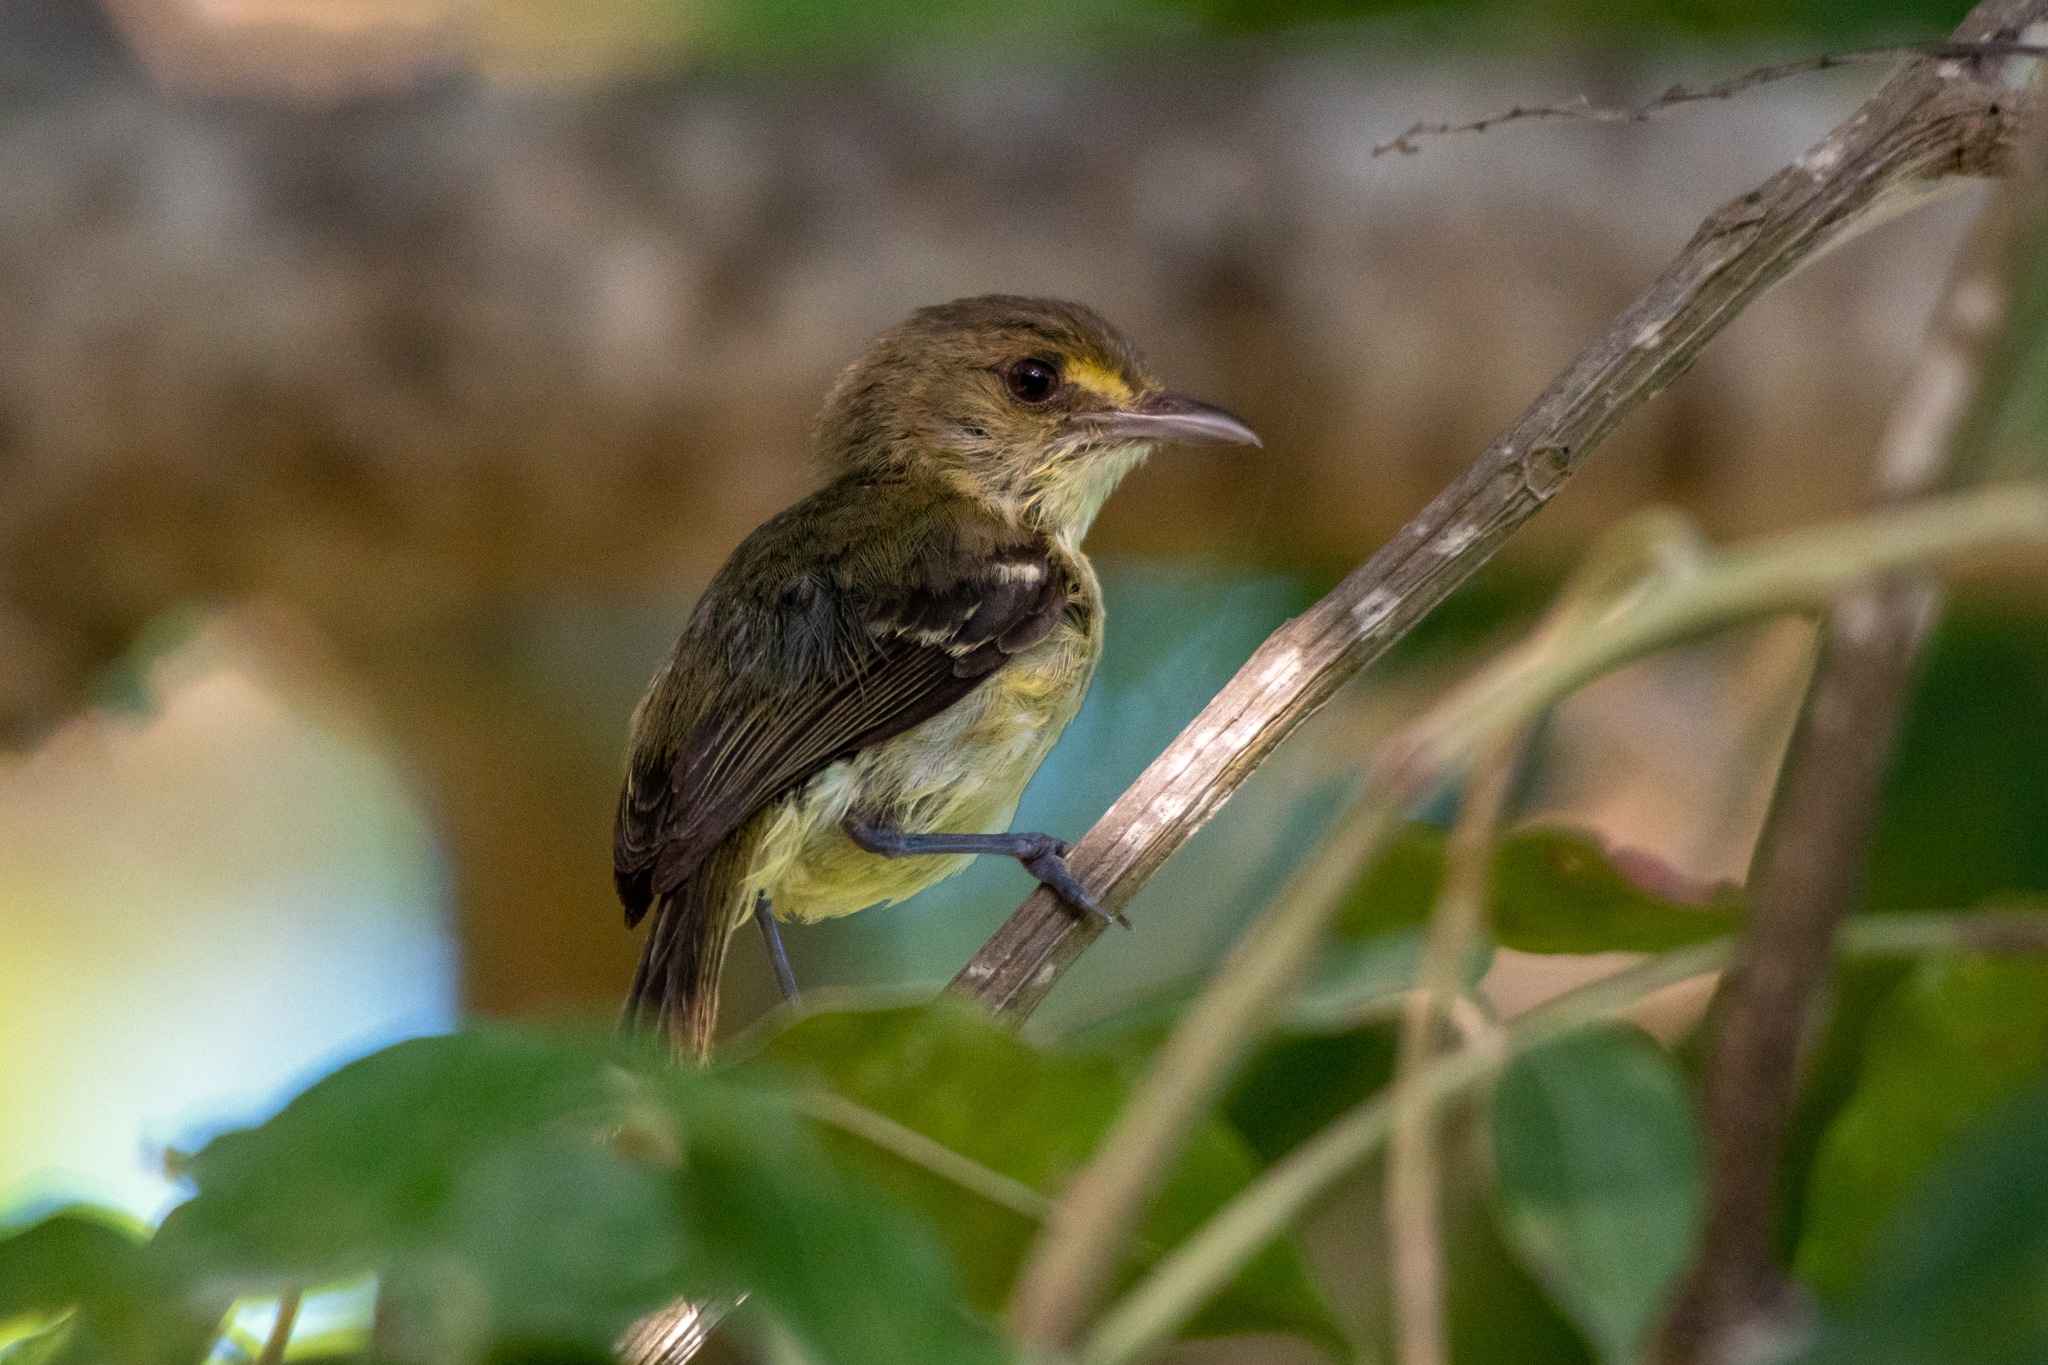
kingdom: Animalia
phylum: Chordata
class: Aves
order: Passeriformes
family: Vireonidae
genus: Vireo
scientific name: Vireo pallens
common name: Mangrove vireo
